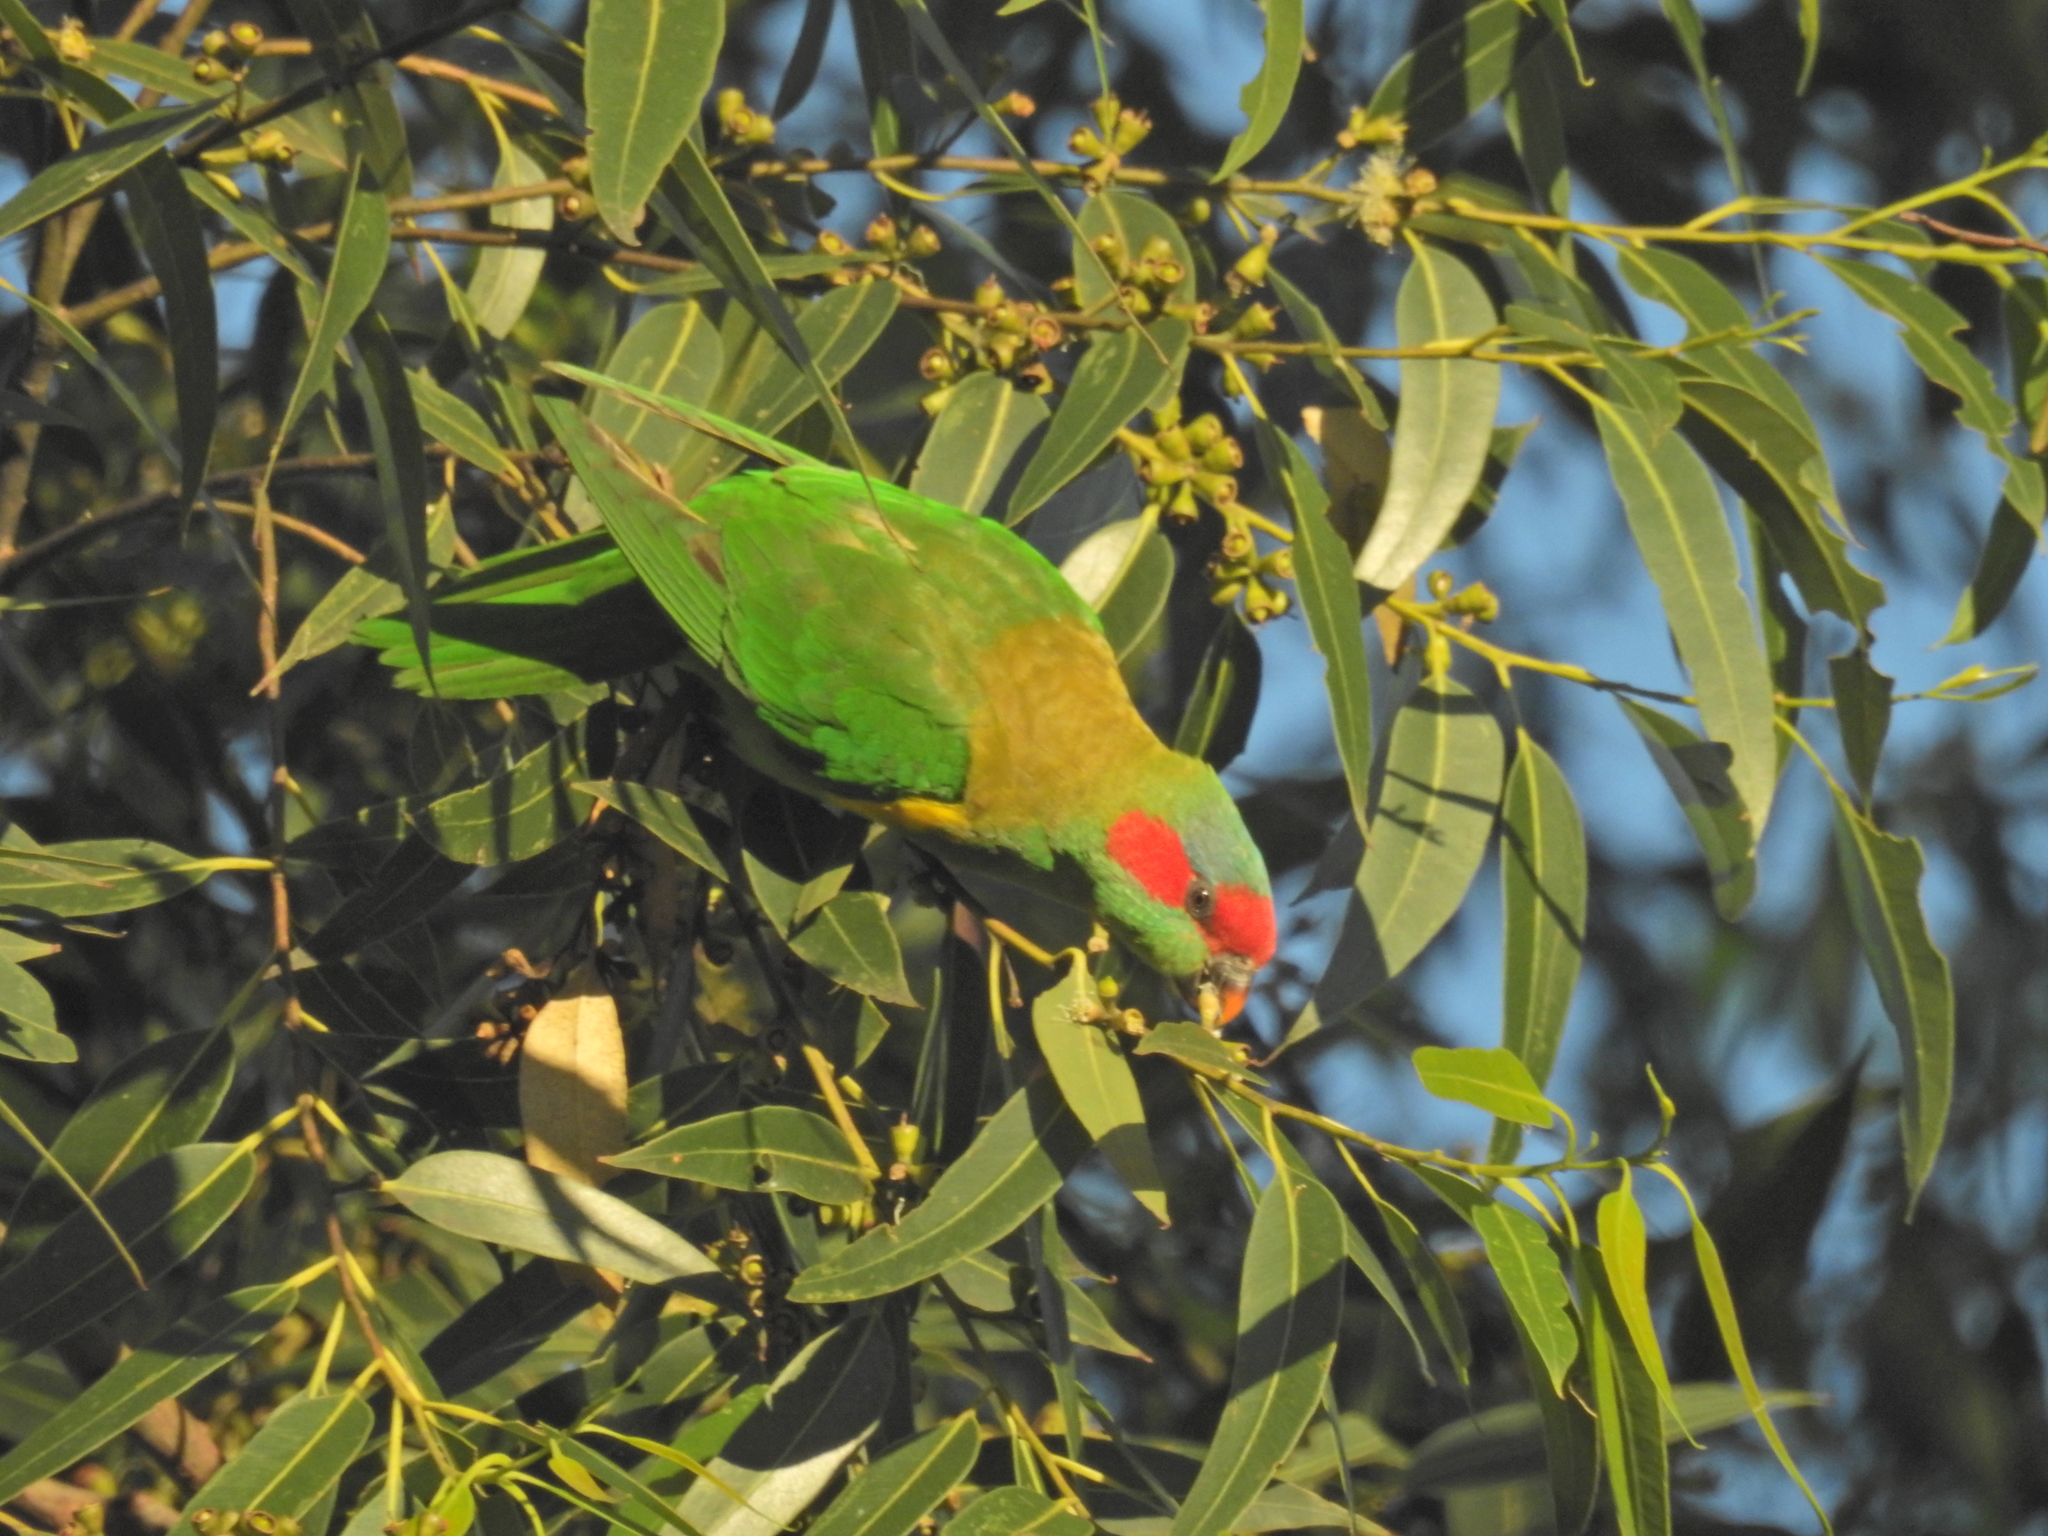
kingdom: Animalia
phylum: Chordata
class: Aves
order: Psittaciformes
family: Psittacidae
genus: Glossopsitta
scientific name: Glossopsitta concinna
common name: Musk lorikeet
